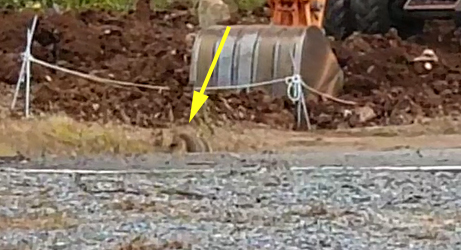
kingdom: Animalia
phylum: Chordata
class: Mammalia
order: Carnivora
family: Canidae
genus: Nyctereutes
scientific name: Nyctereutes procyonoides
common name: Raccoon dog
